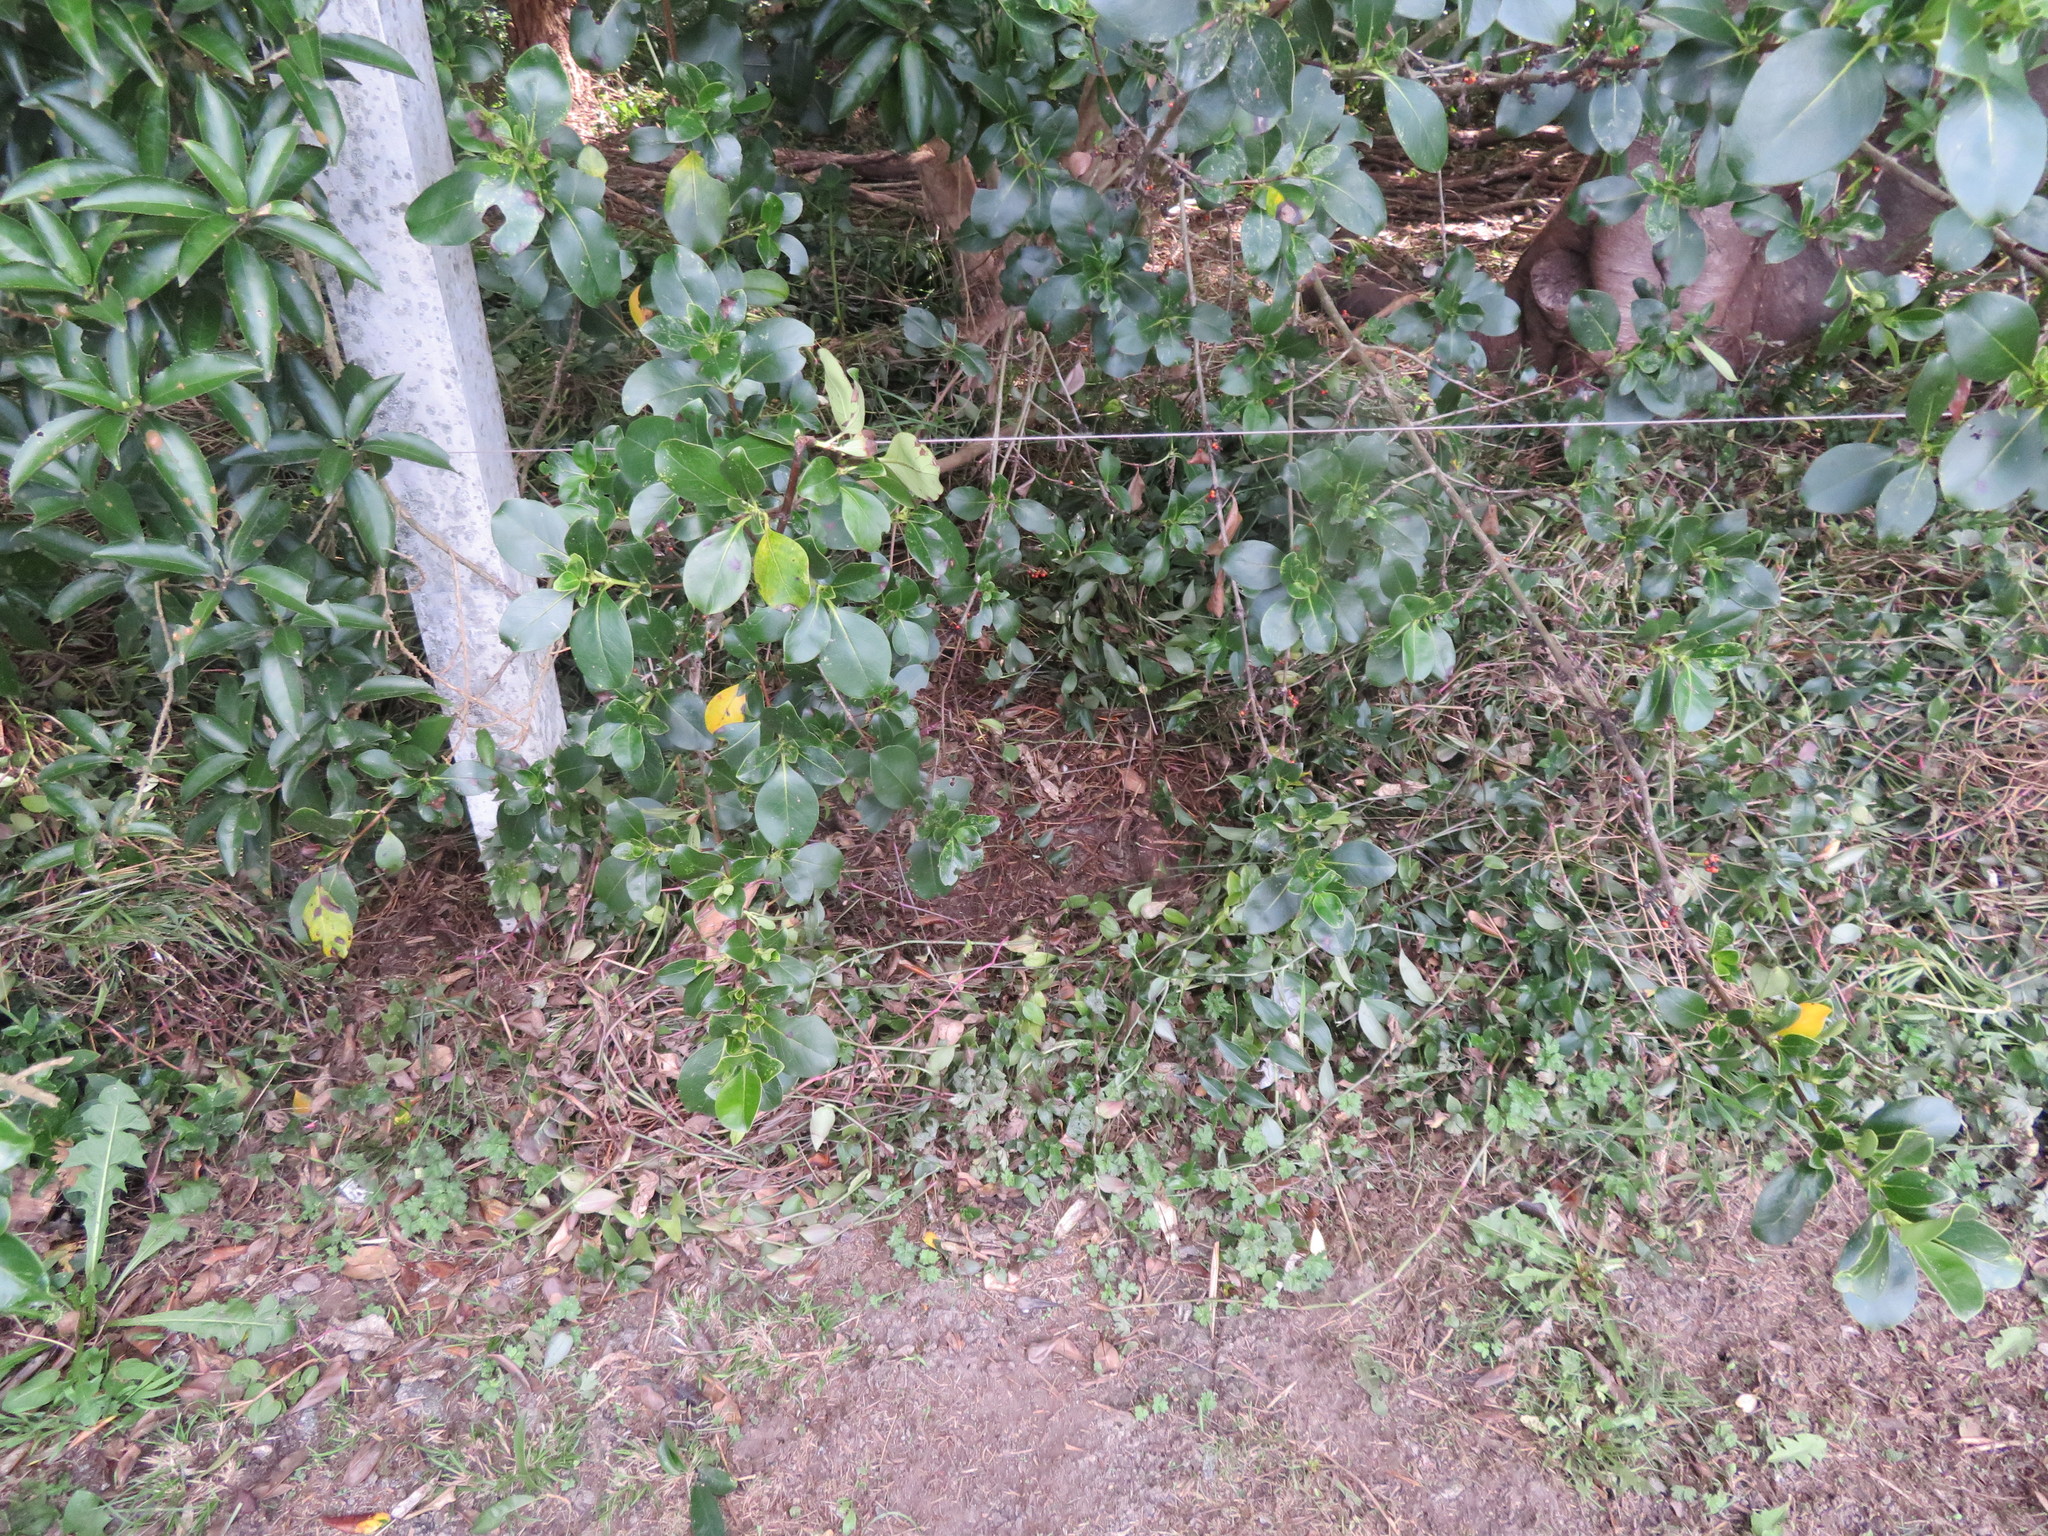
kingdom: Plantae
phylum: Tracheophyta
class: Liliopsida
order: Commelinales
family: Commelinaceae
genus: Tradescantia
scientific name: Tradescantia fluminensis
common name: Wandering-jew
